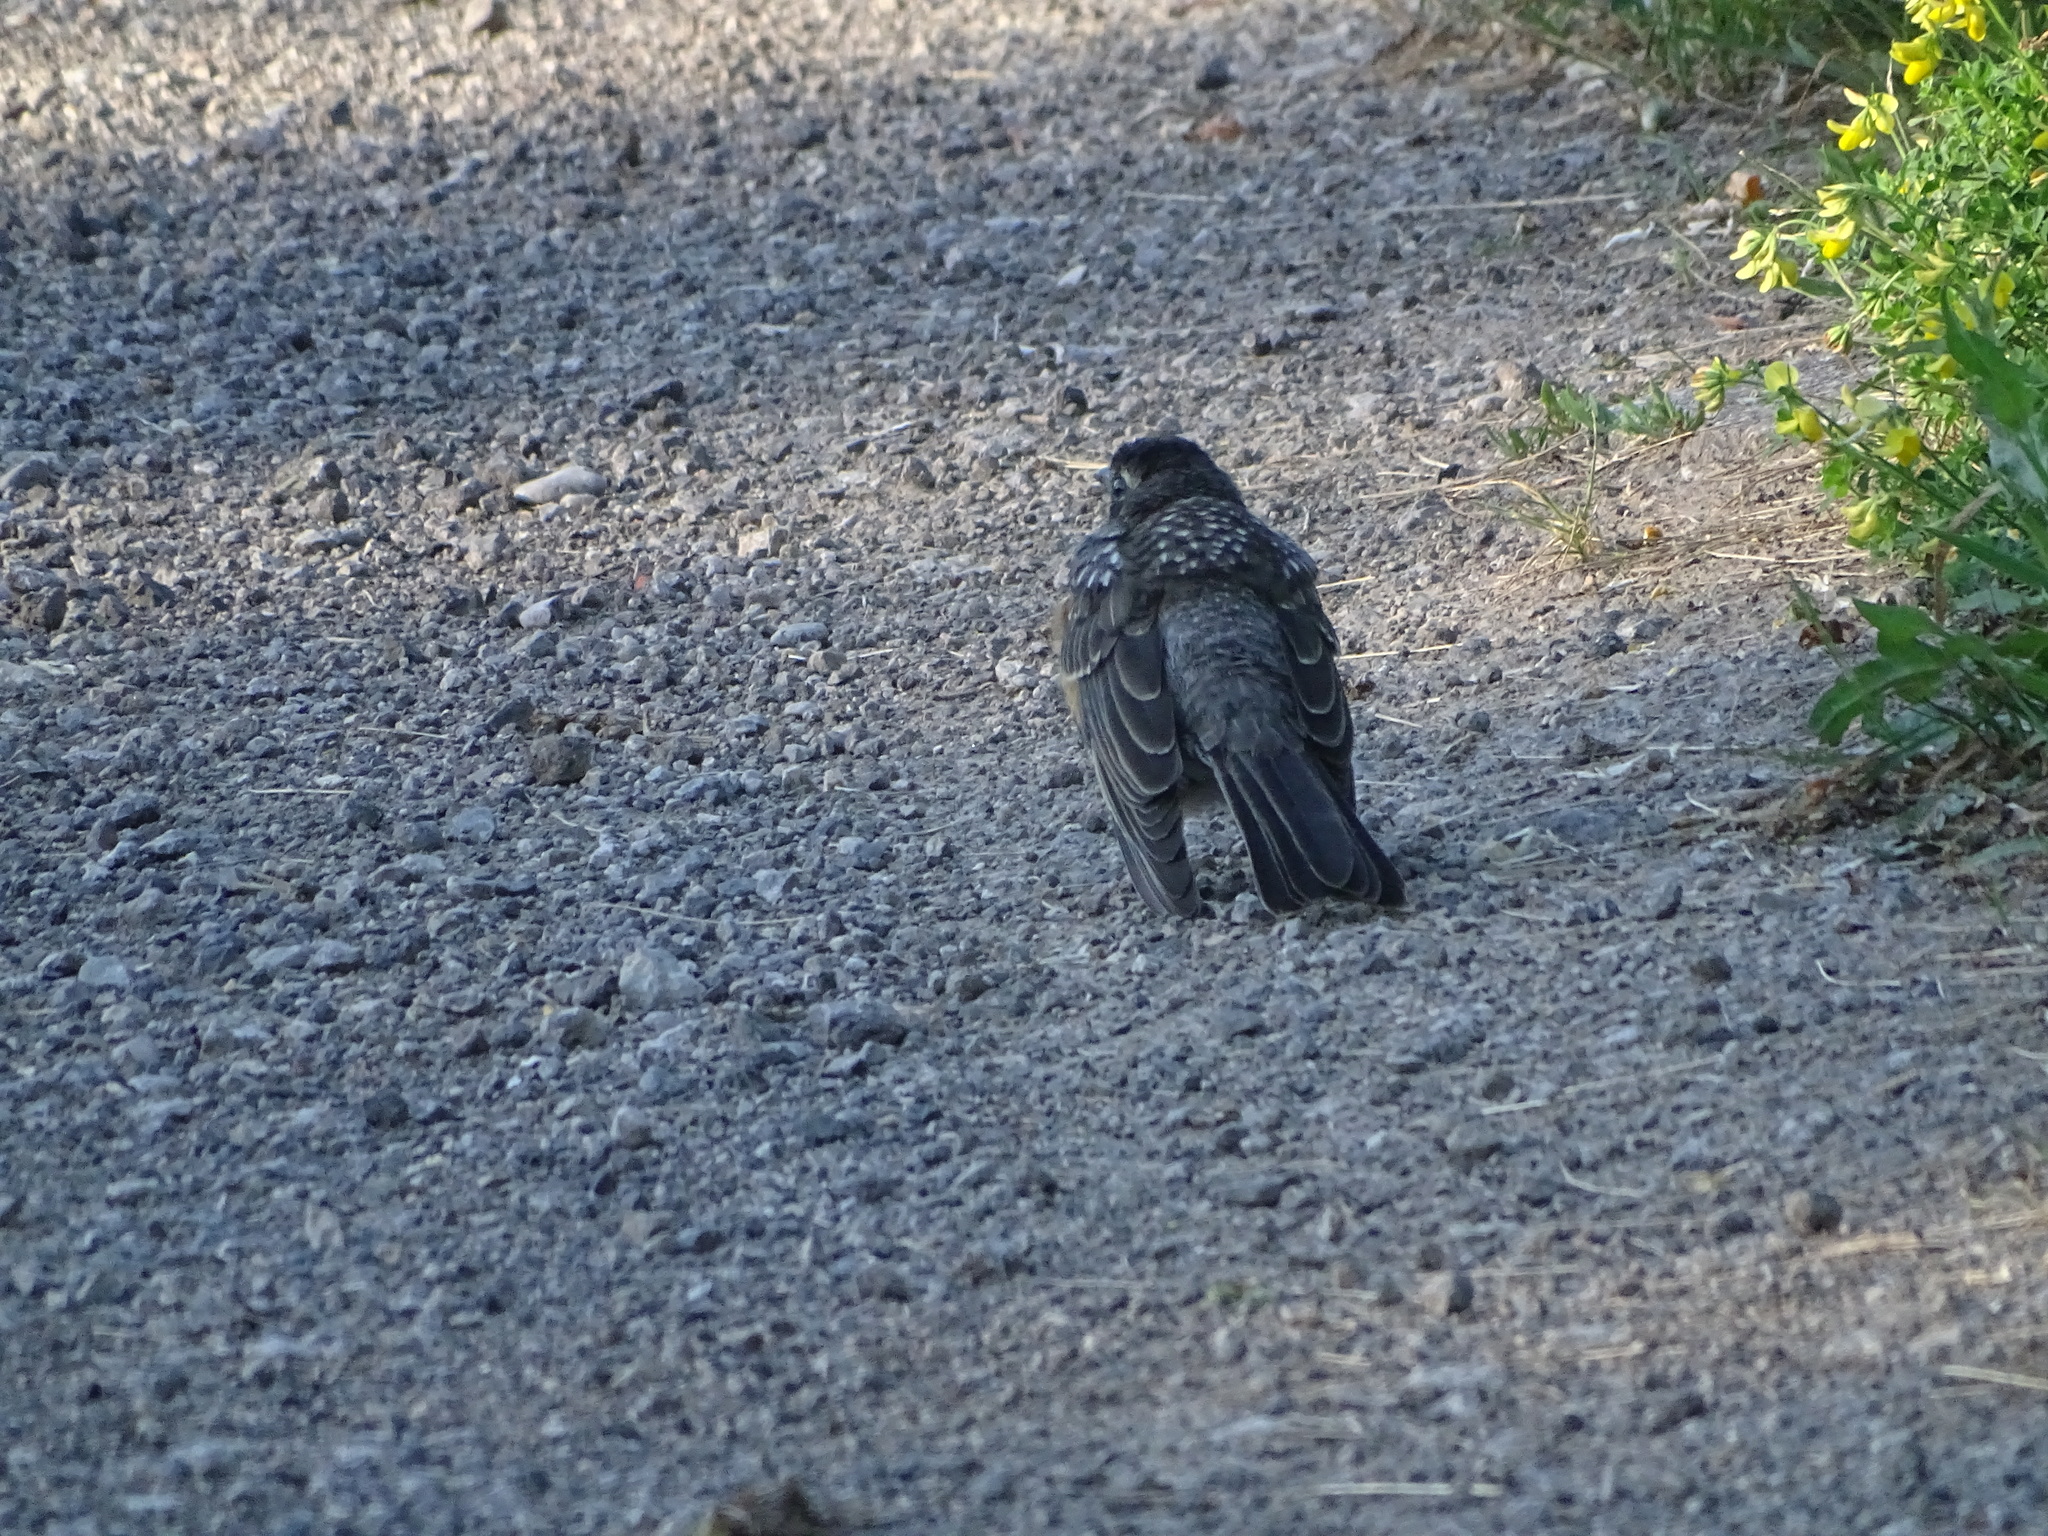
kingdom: Animalia
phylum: Chordata
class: Aves
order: Passeriformes
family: Turdidae
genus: Turdus
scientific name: Turdus migratorius
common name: American robin
